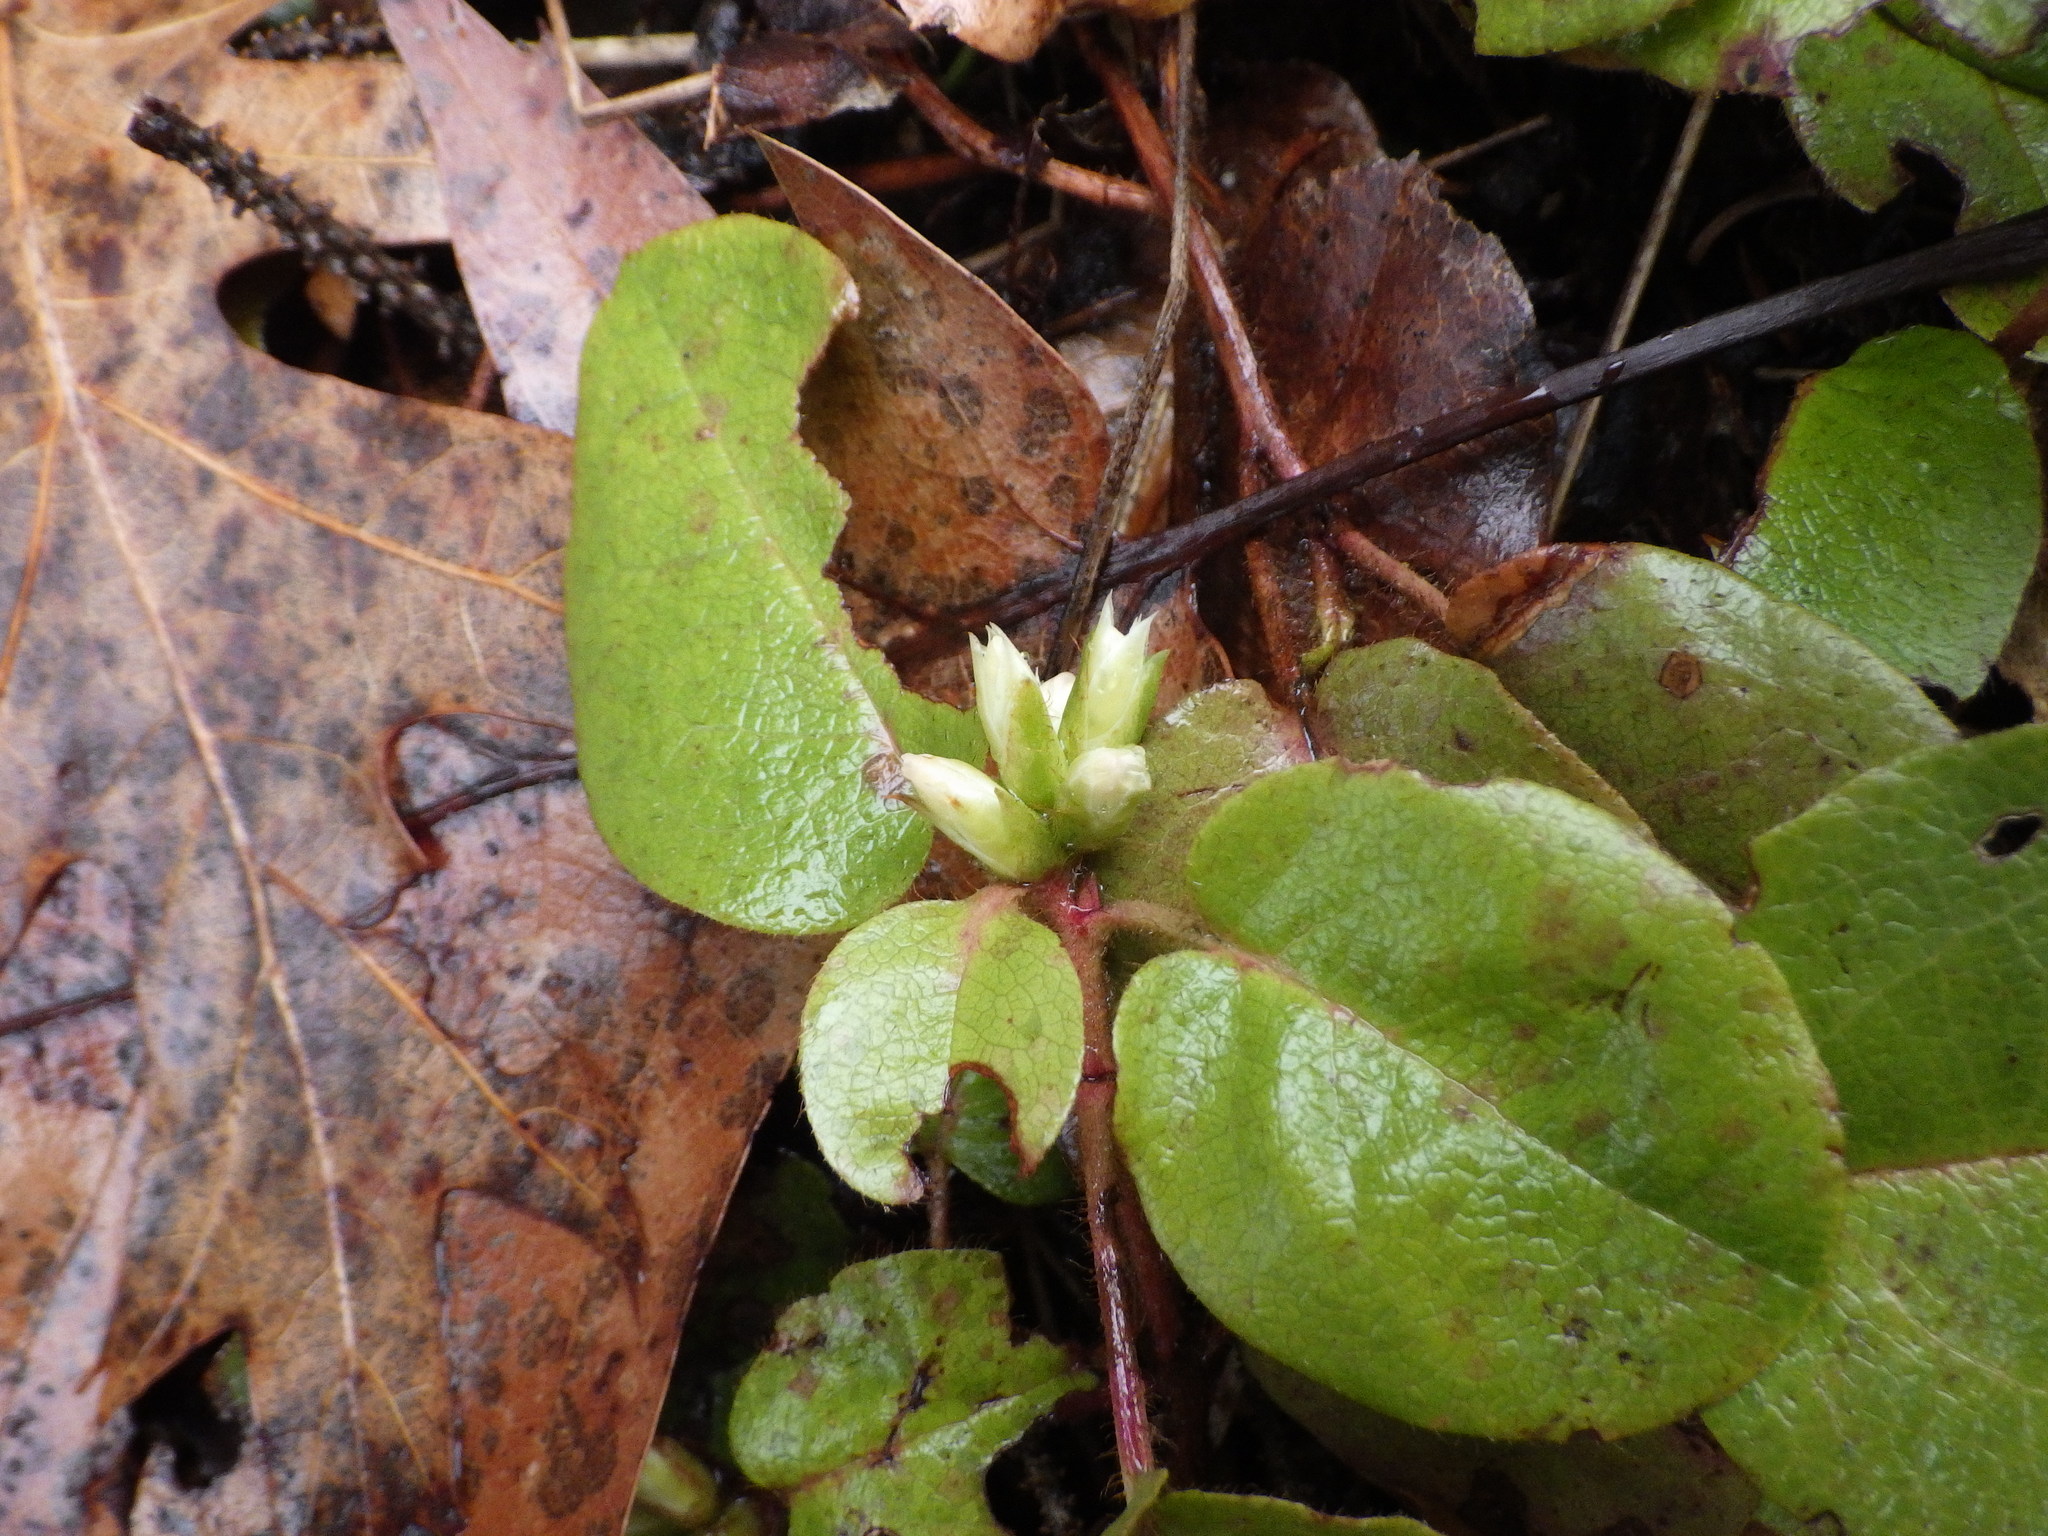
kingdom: Plantae
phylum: Tracheophyta
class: Magnoliopsida
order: Ericales
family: Ericaceae
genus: Epigaea
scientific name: Epigaea repens
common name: Gravelroot
